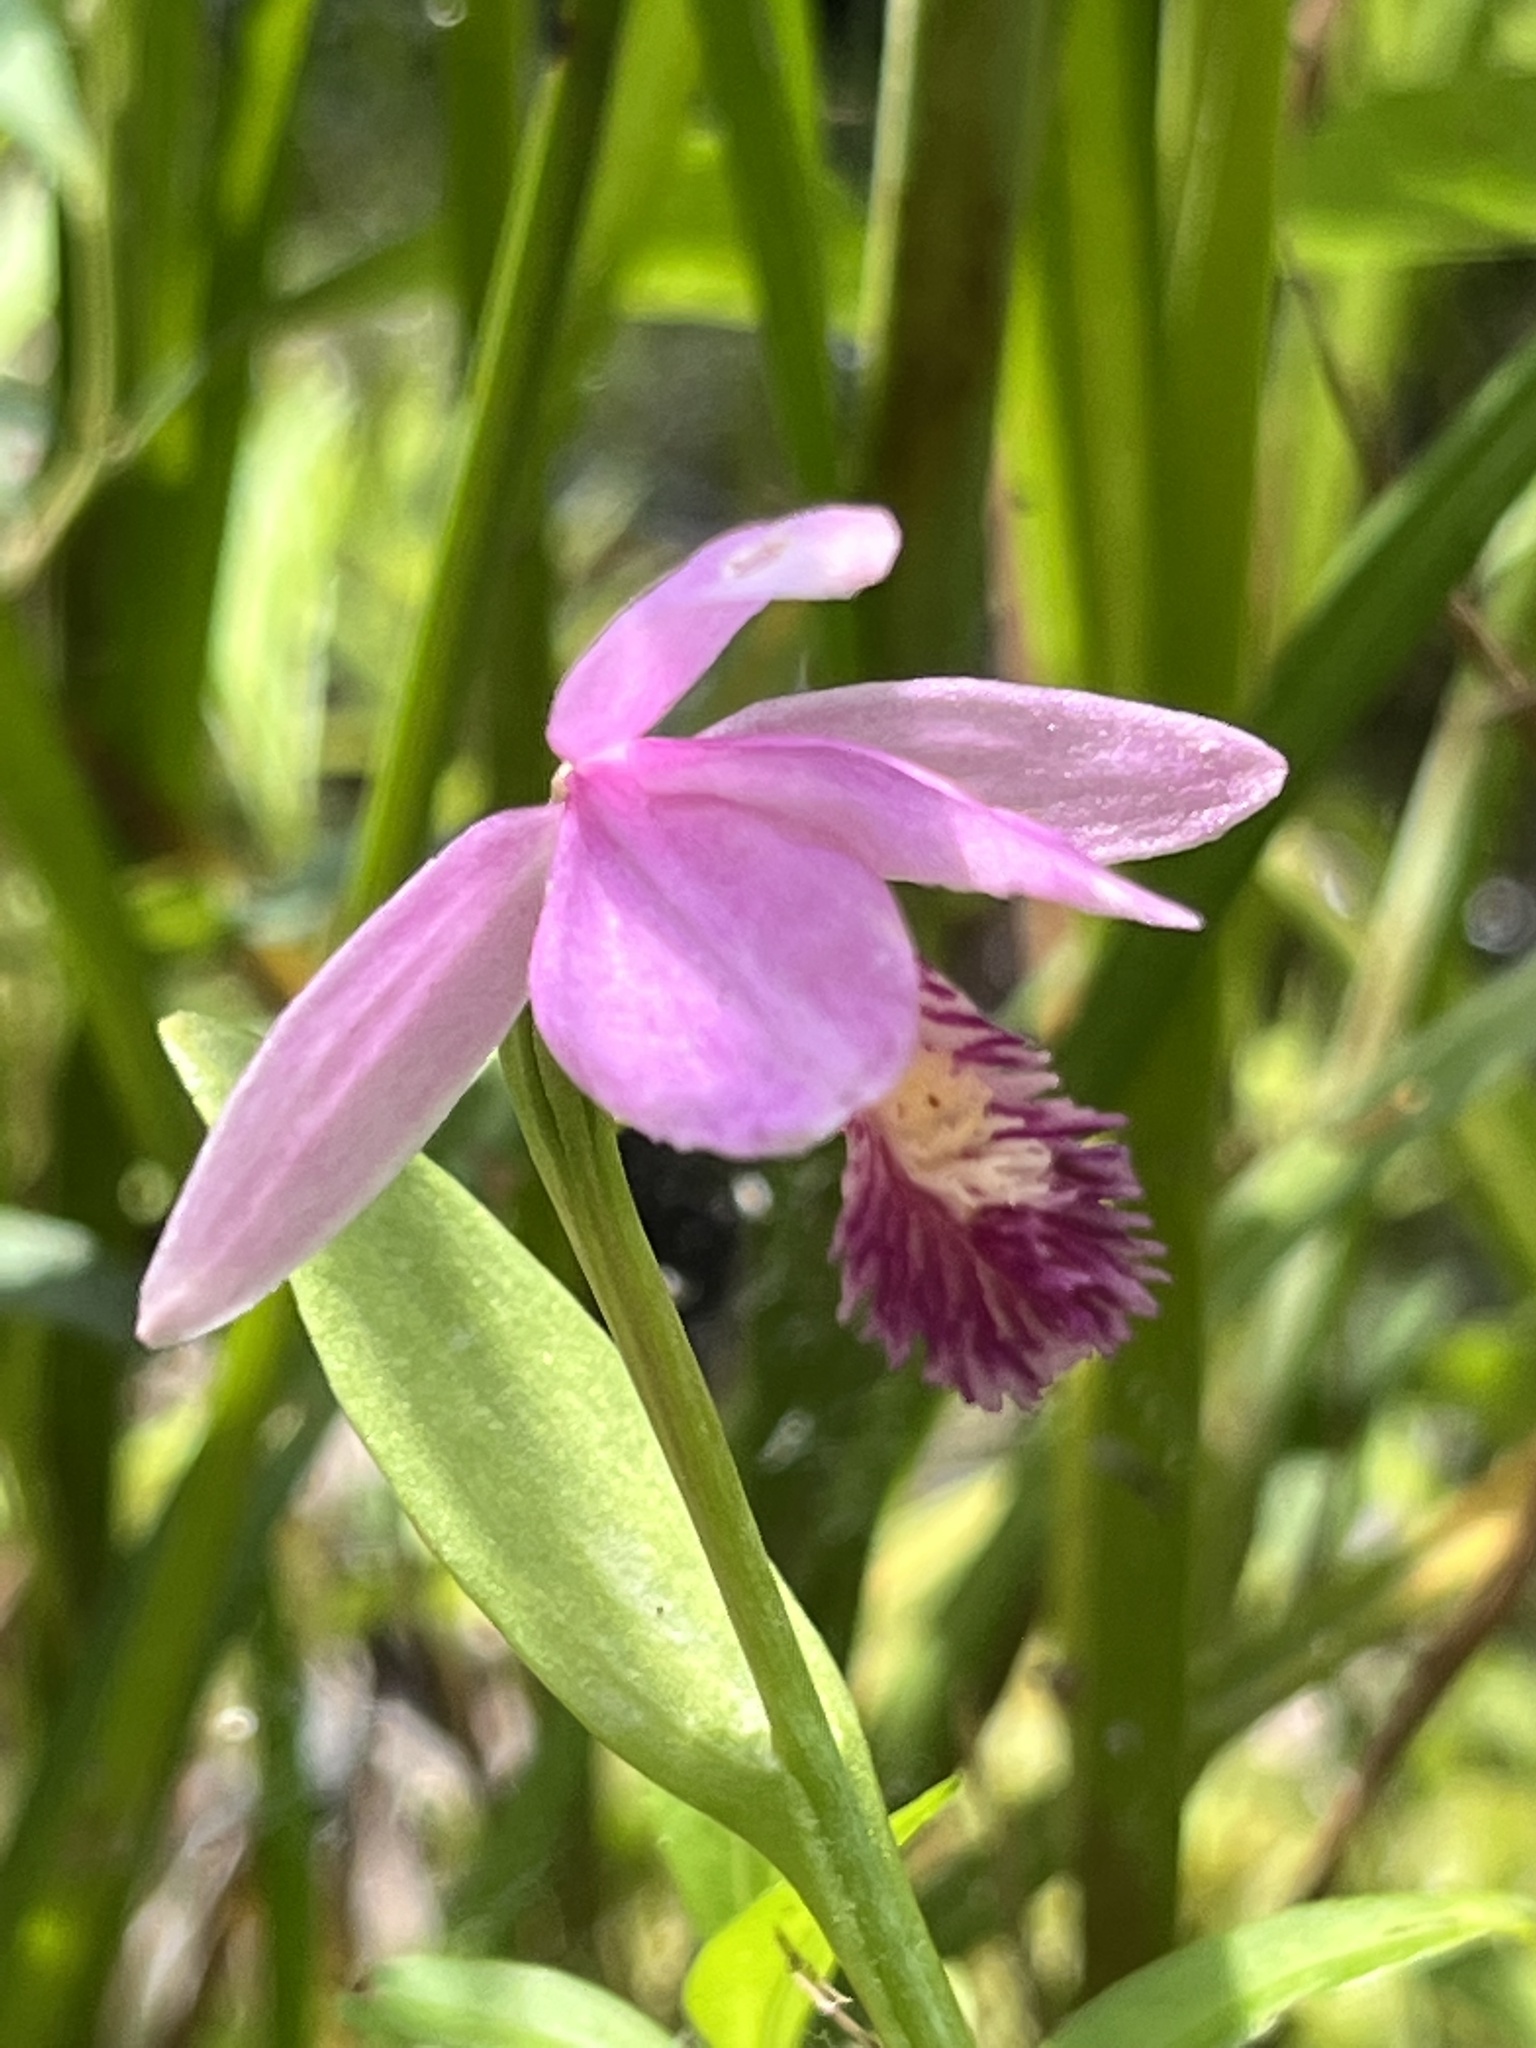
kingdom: Plantae
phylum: Tracheophyta
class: Liliopsida
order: Asparagales
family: Orchidaceae
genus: Pogonia
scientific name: Pogonia ophioglossoides
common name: Rose pogonia
